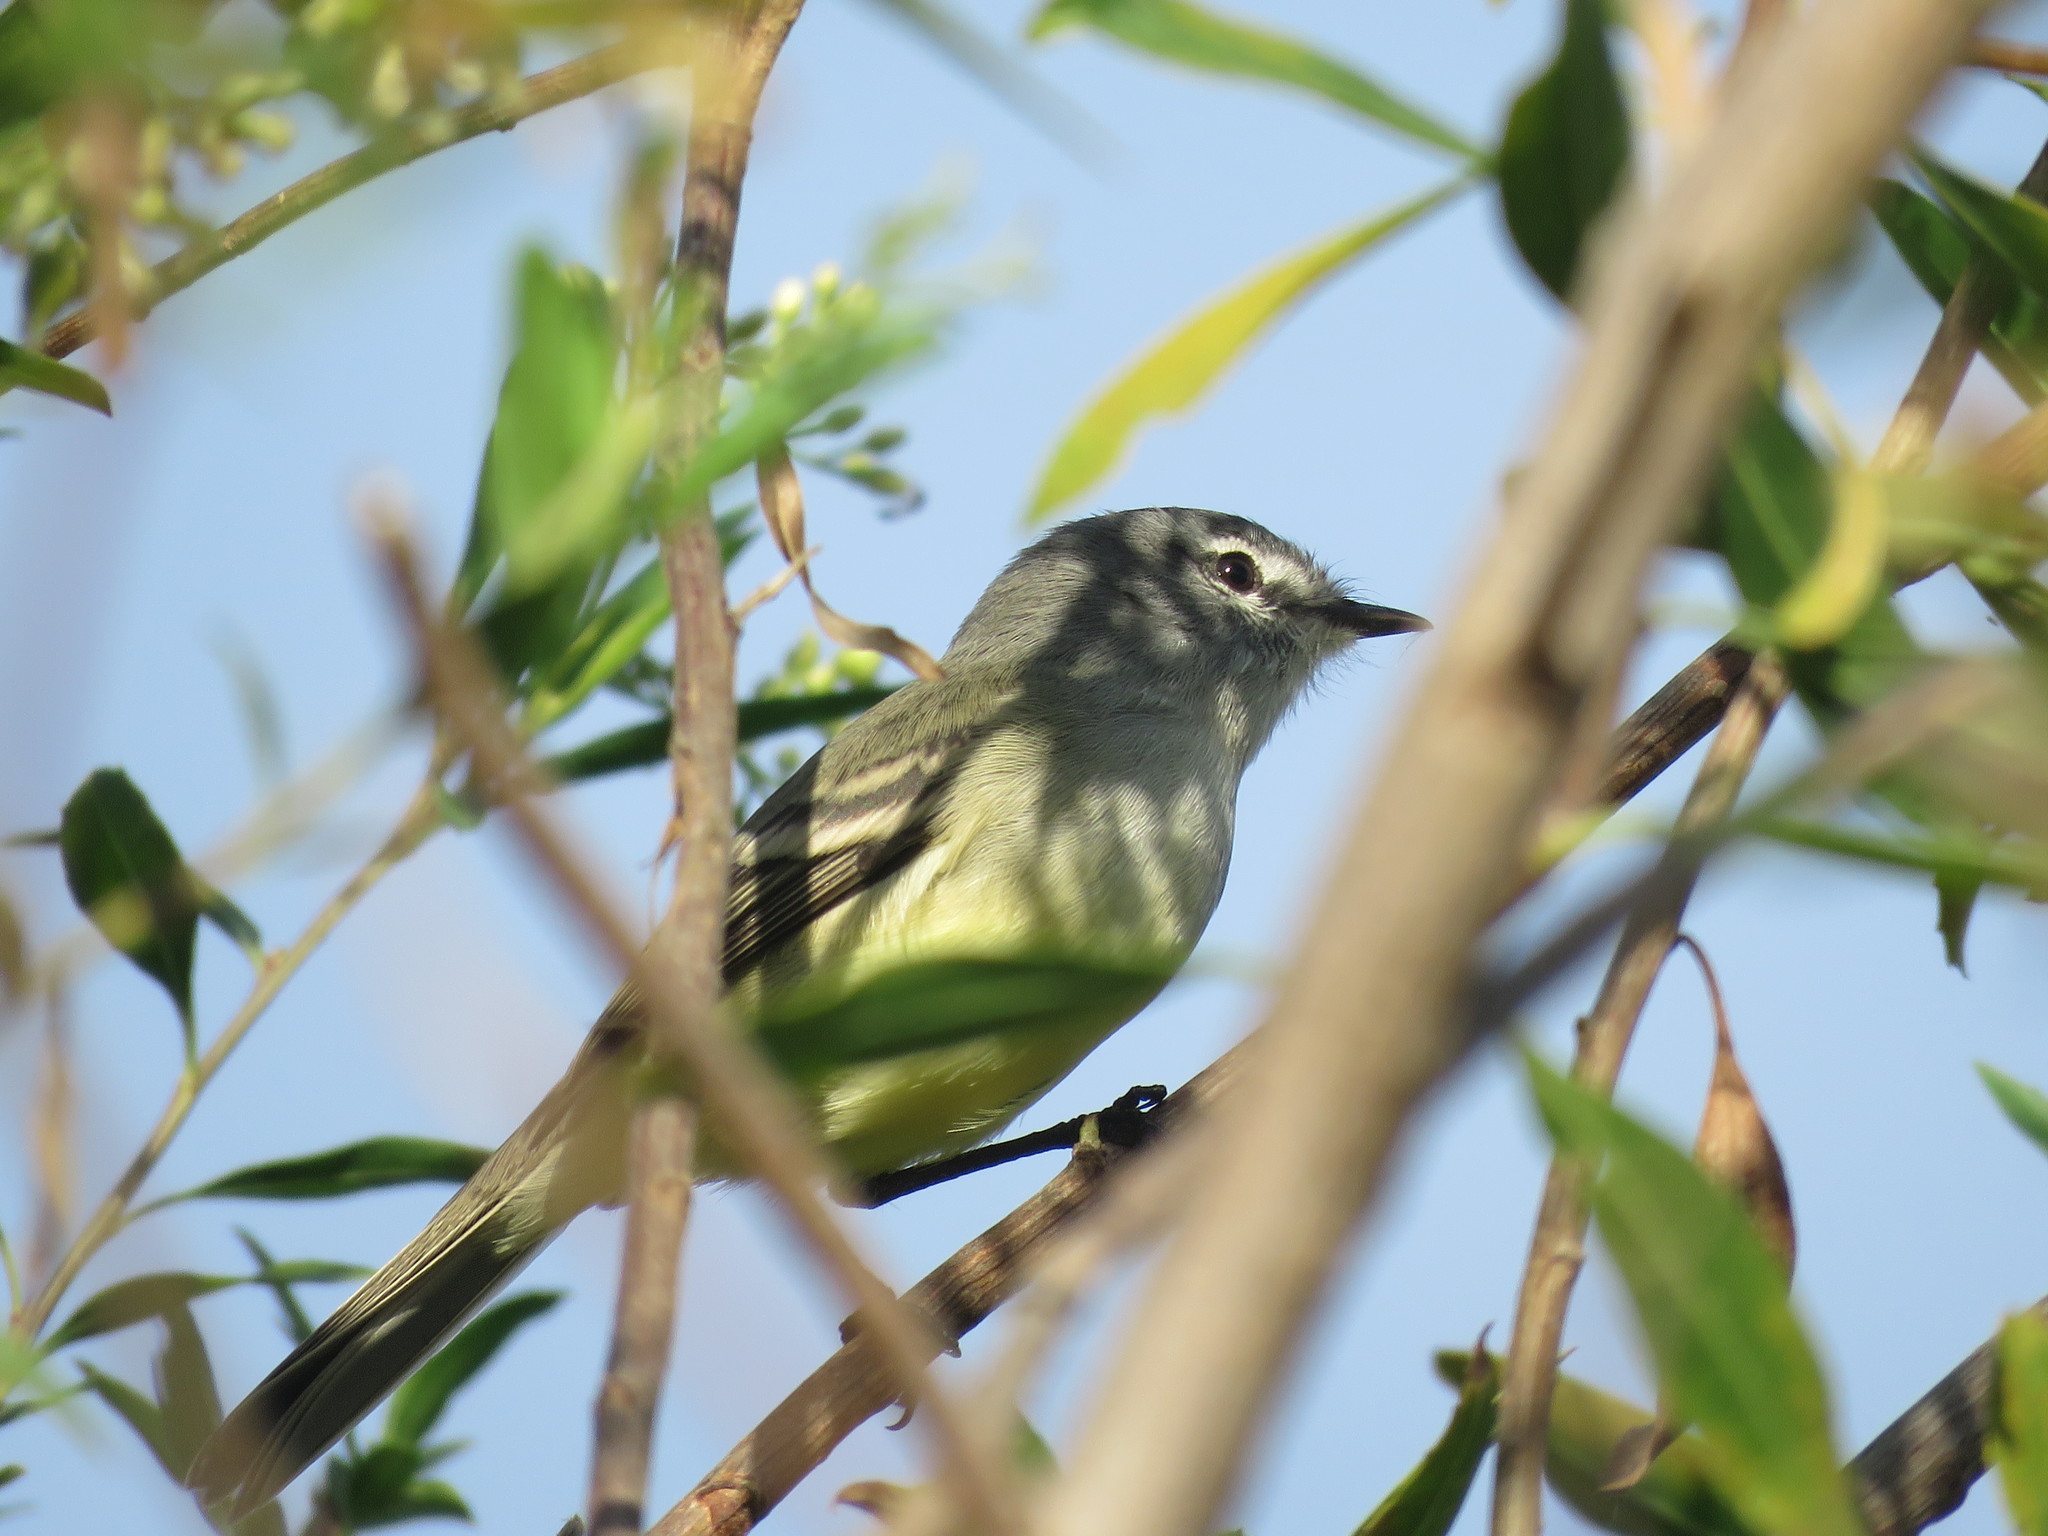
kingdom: Animalia
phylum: Chordata
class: Aves
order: Passeriformes
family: Tyrannidae
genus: Serpophaga
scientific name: Serpophaga subcristata
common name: White-crested tyrannulet
